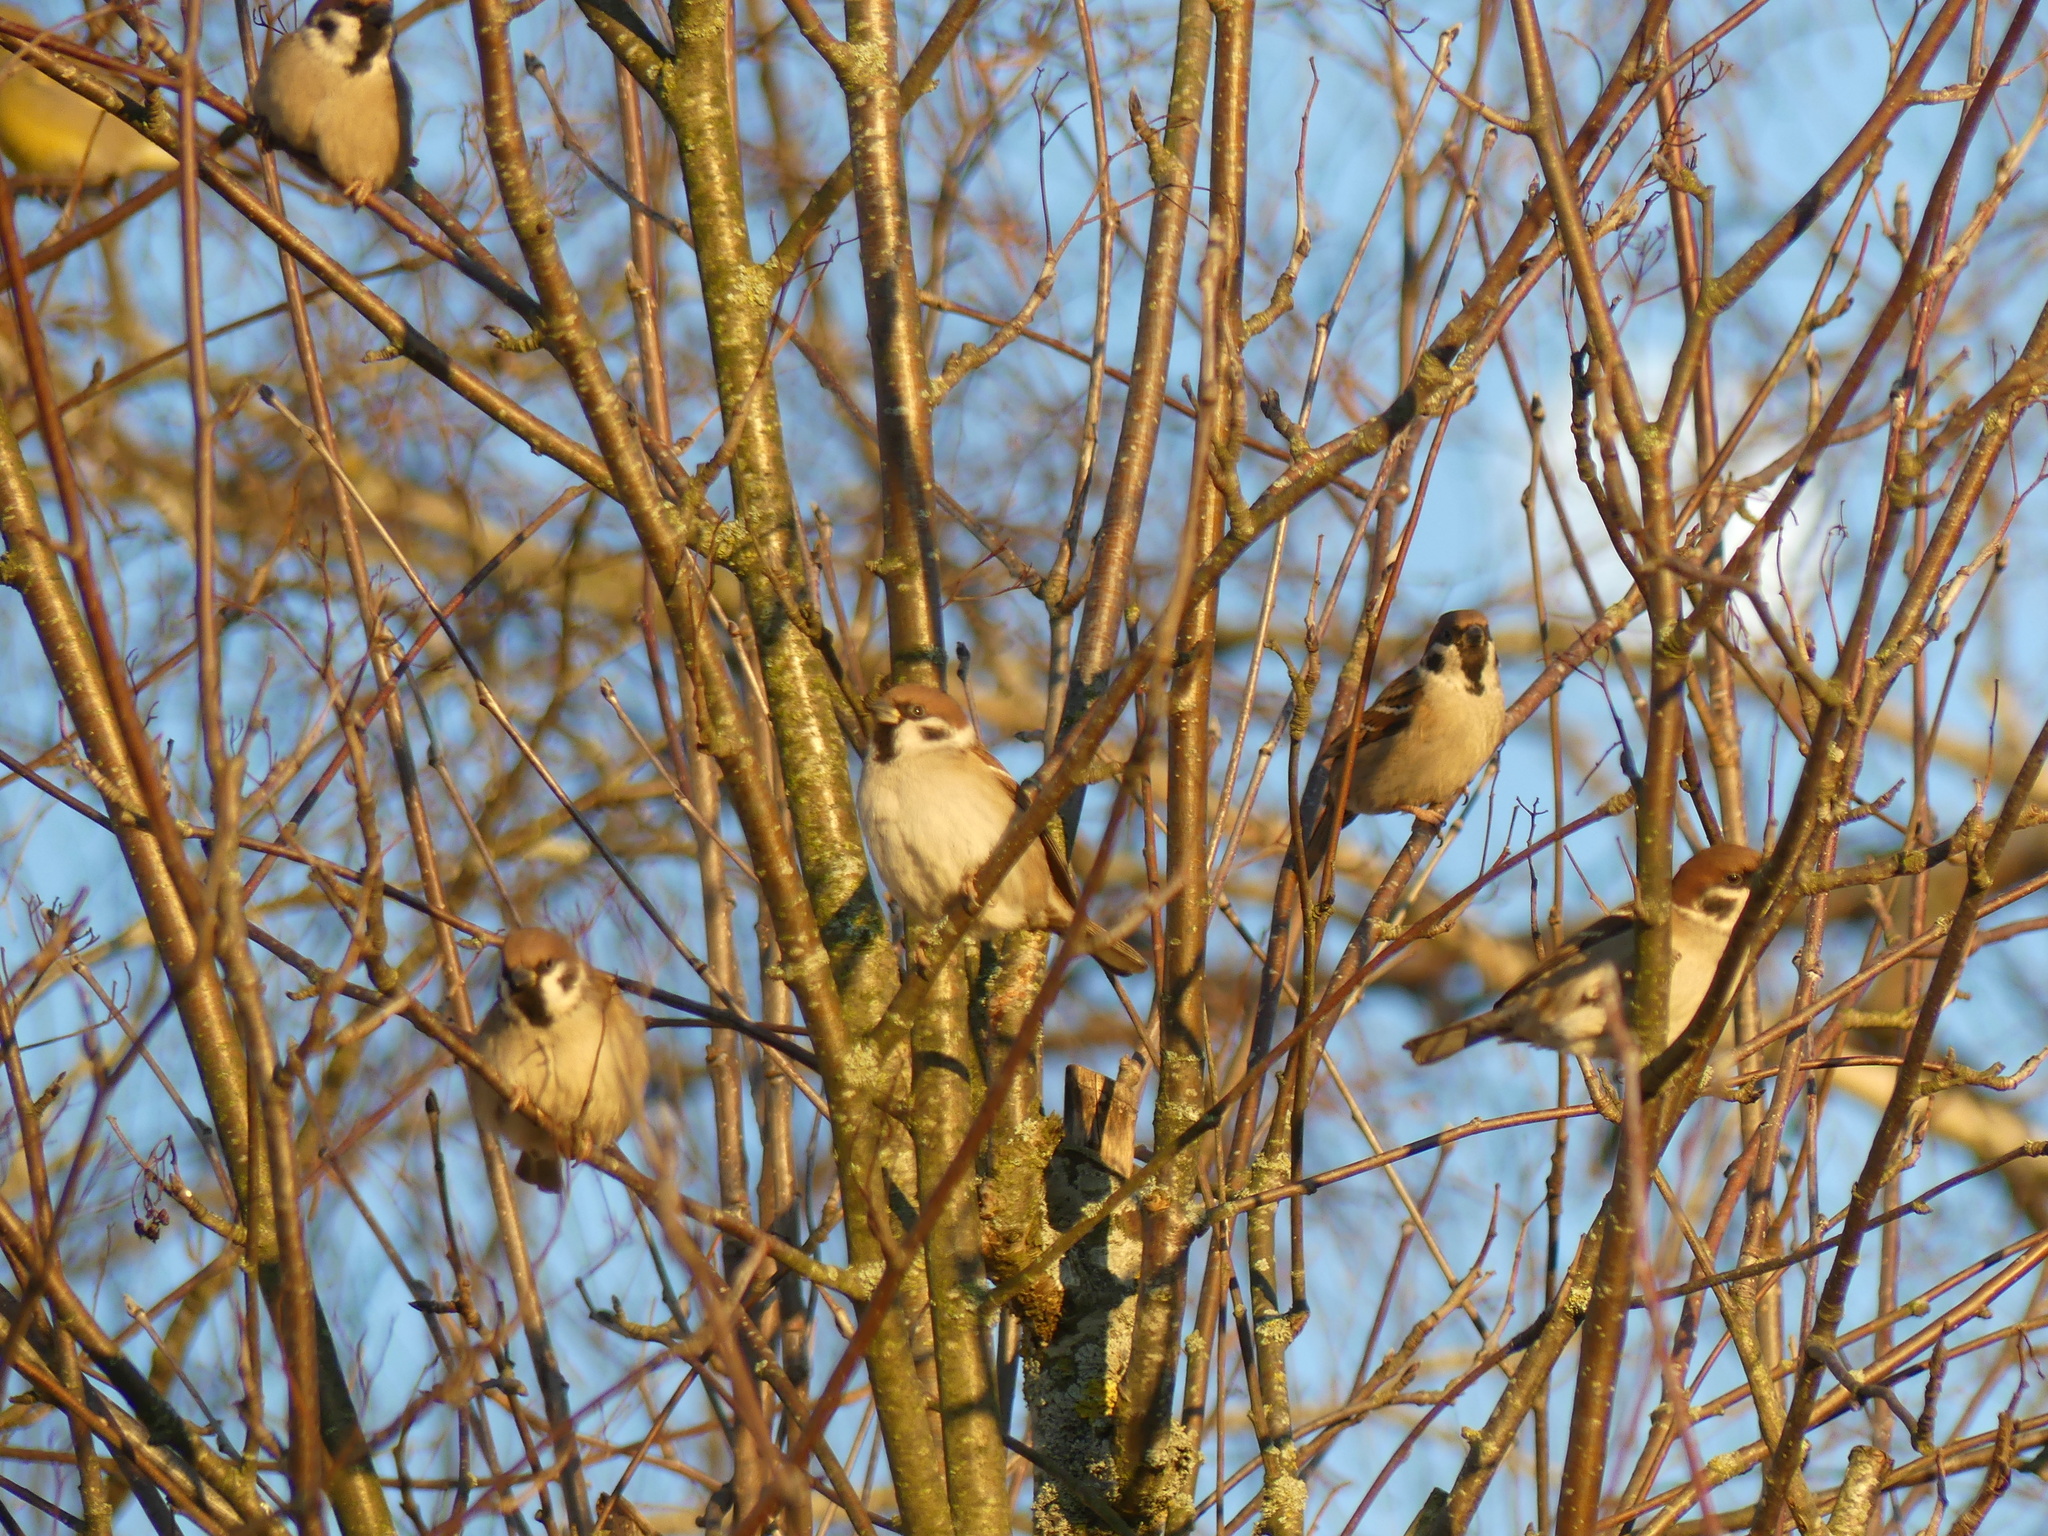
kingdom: Animalia
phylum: Chordata
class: Aves
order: Passeriformes
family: Passeridae
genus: Passer
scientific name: Passer montanus
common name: Eurasian tree sparrow
